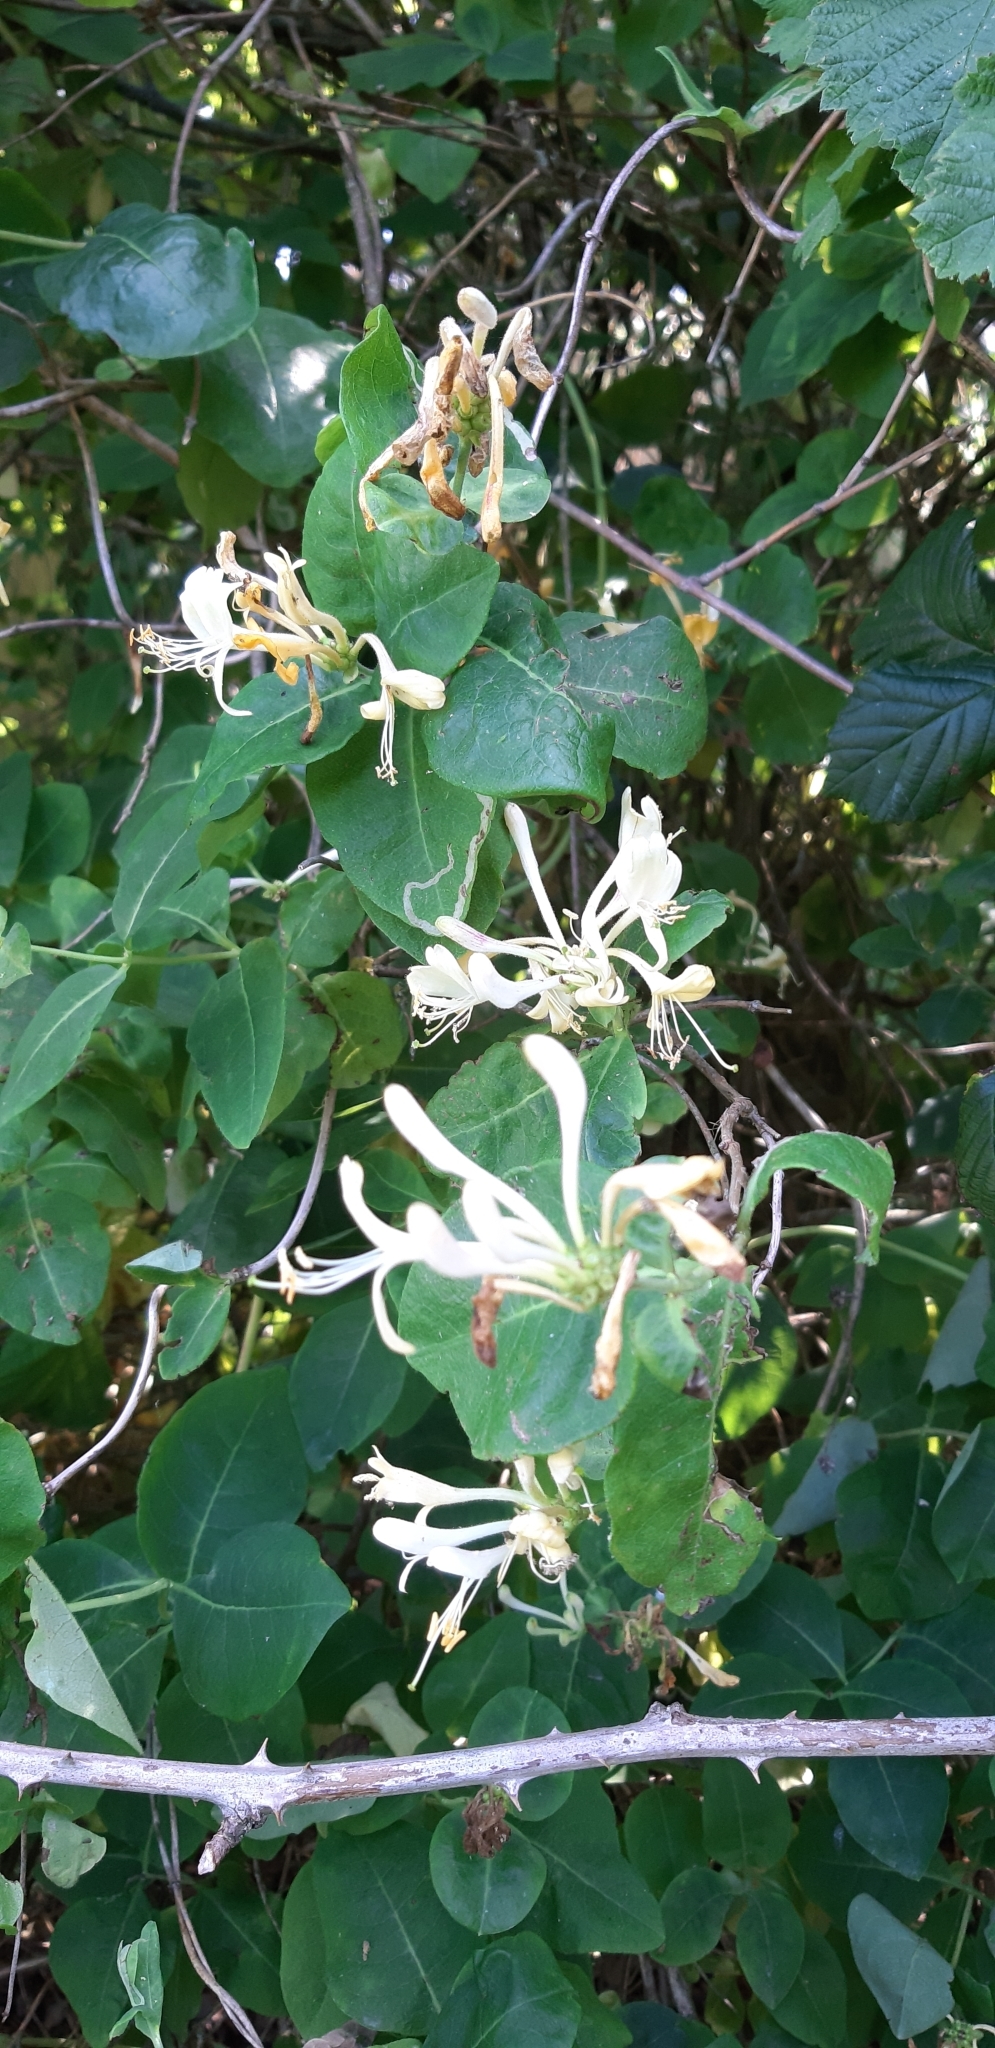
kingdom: Plantae
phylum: Tracheophyta
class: Magnoliopsida
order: Dipsacales
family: Caprifoliaceae
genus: Lonicera
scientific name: Lonicera periclymenum
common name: European honeysuckle
